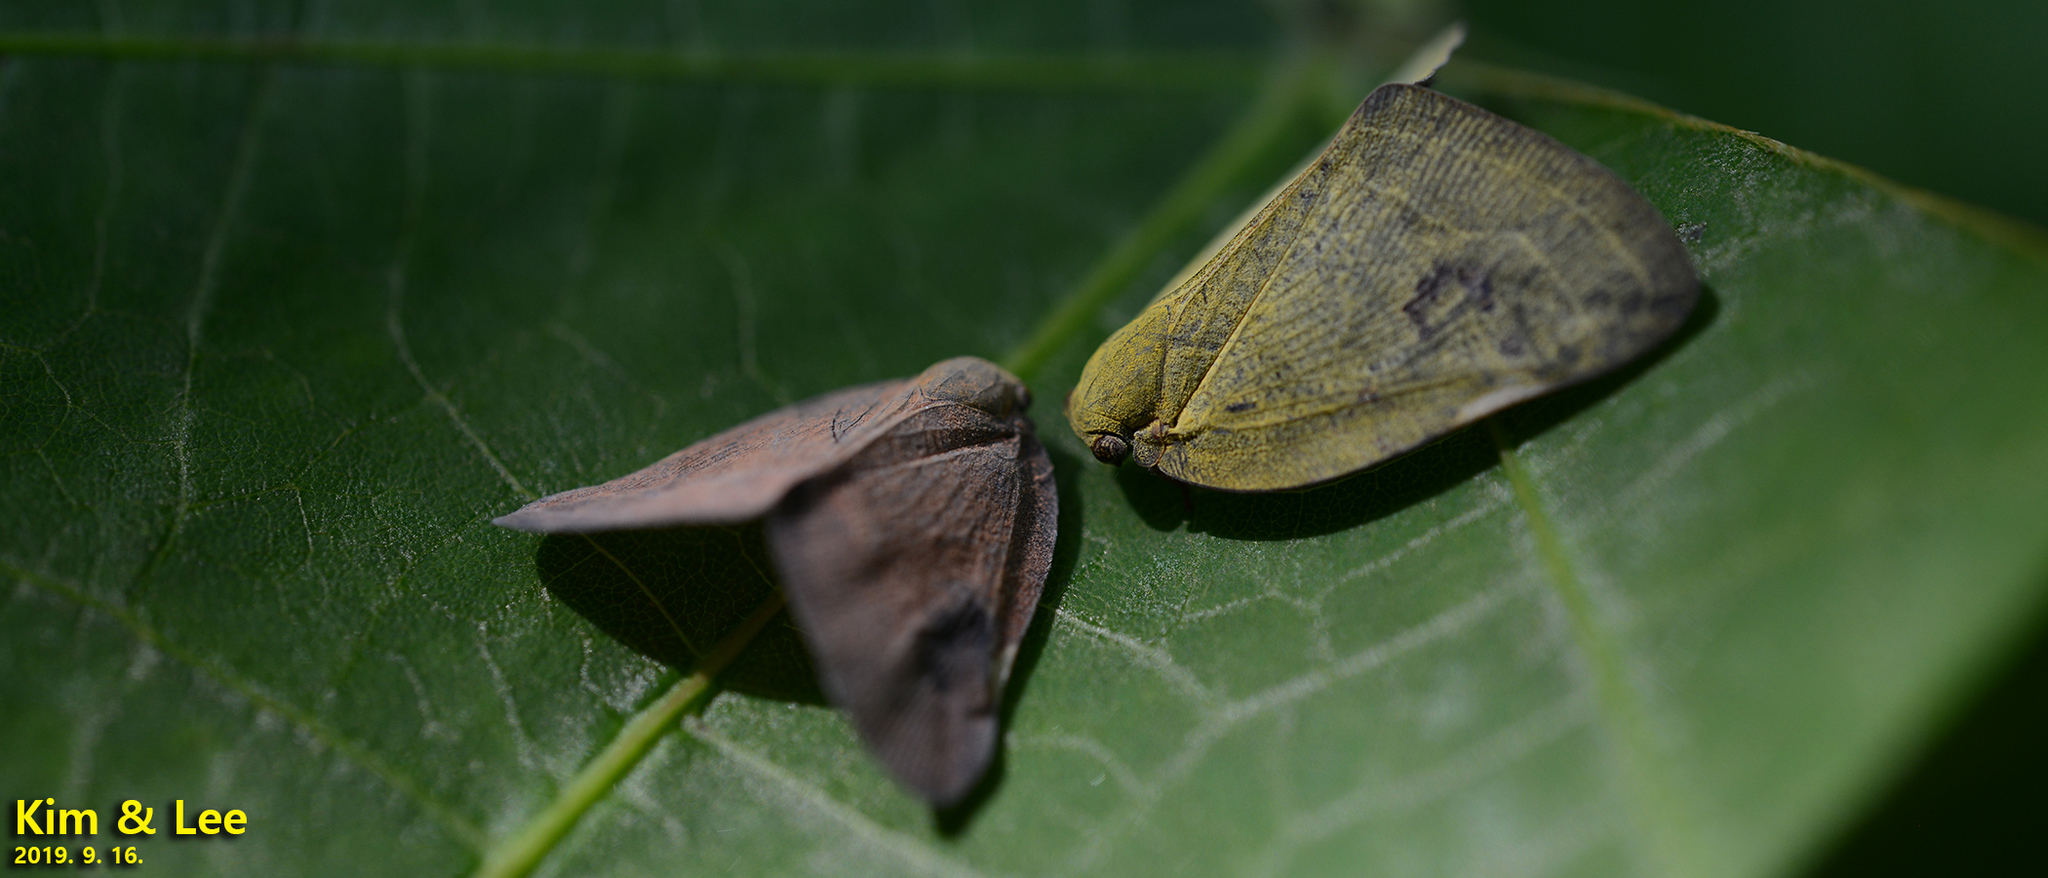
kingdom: Animalia
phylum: Arthropoda
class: Insecta
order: Hemiptera
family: Ricaniidae
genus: Ricanula
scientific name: Ricanula sublimata
